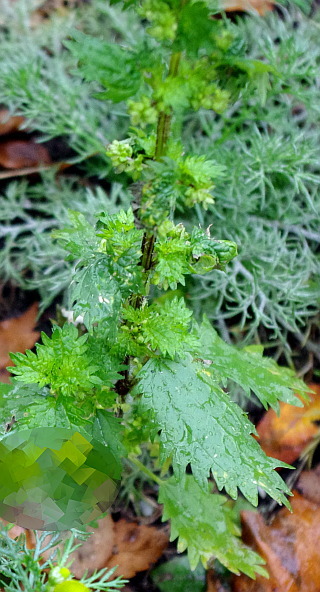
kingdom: Plantae
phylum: Tracheophyta
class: Magnoliopsida
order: Rosales
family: Urticaceae
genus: Urtica
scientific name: Urtica urens
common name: Dwarf nettle
